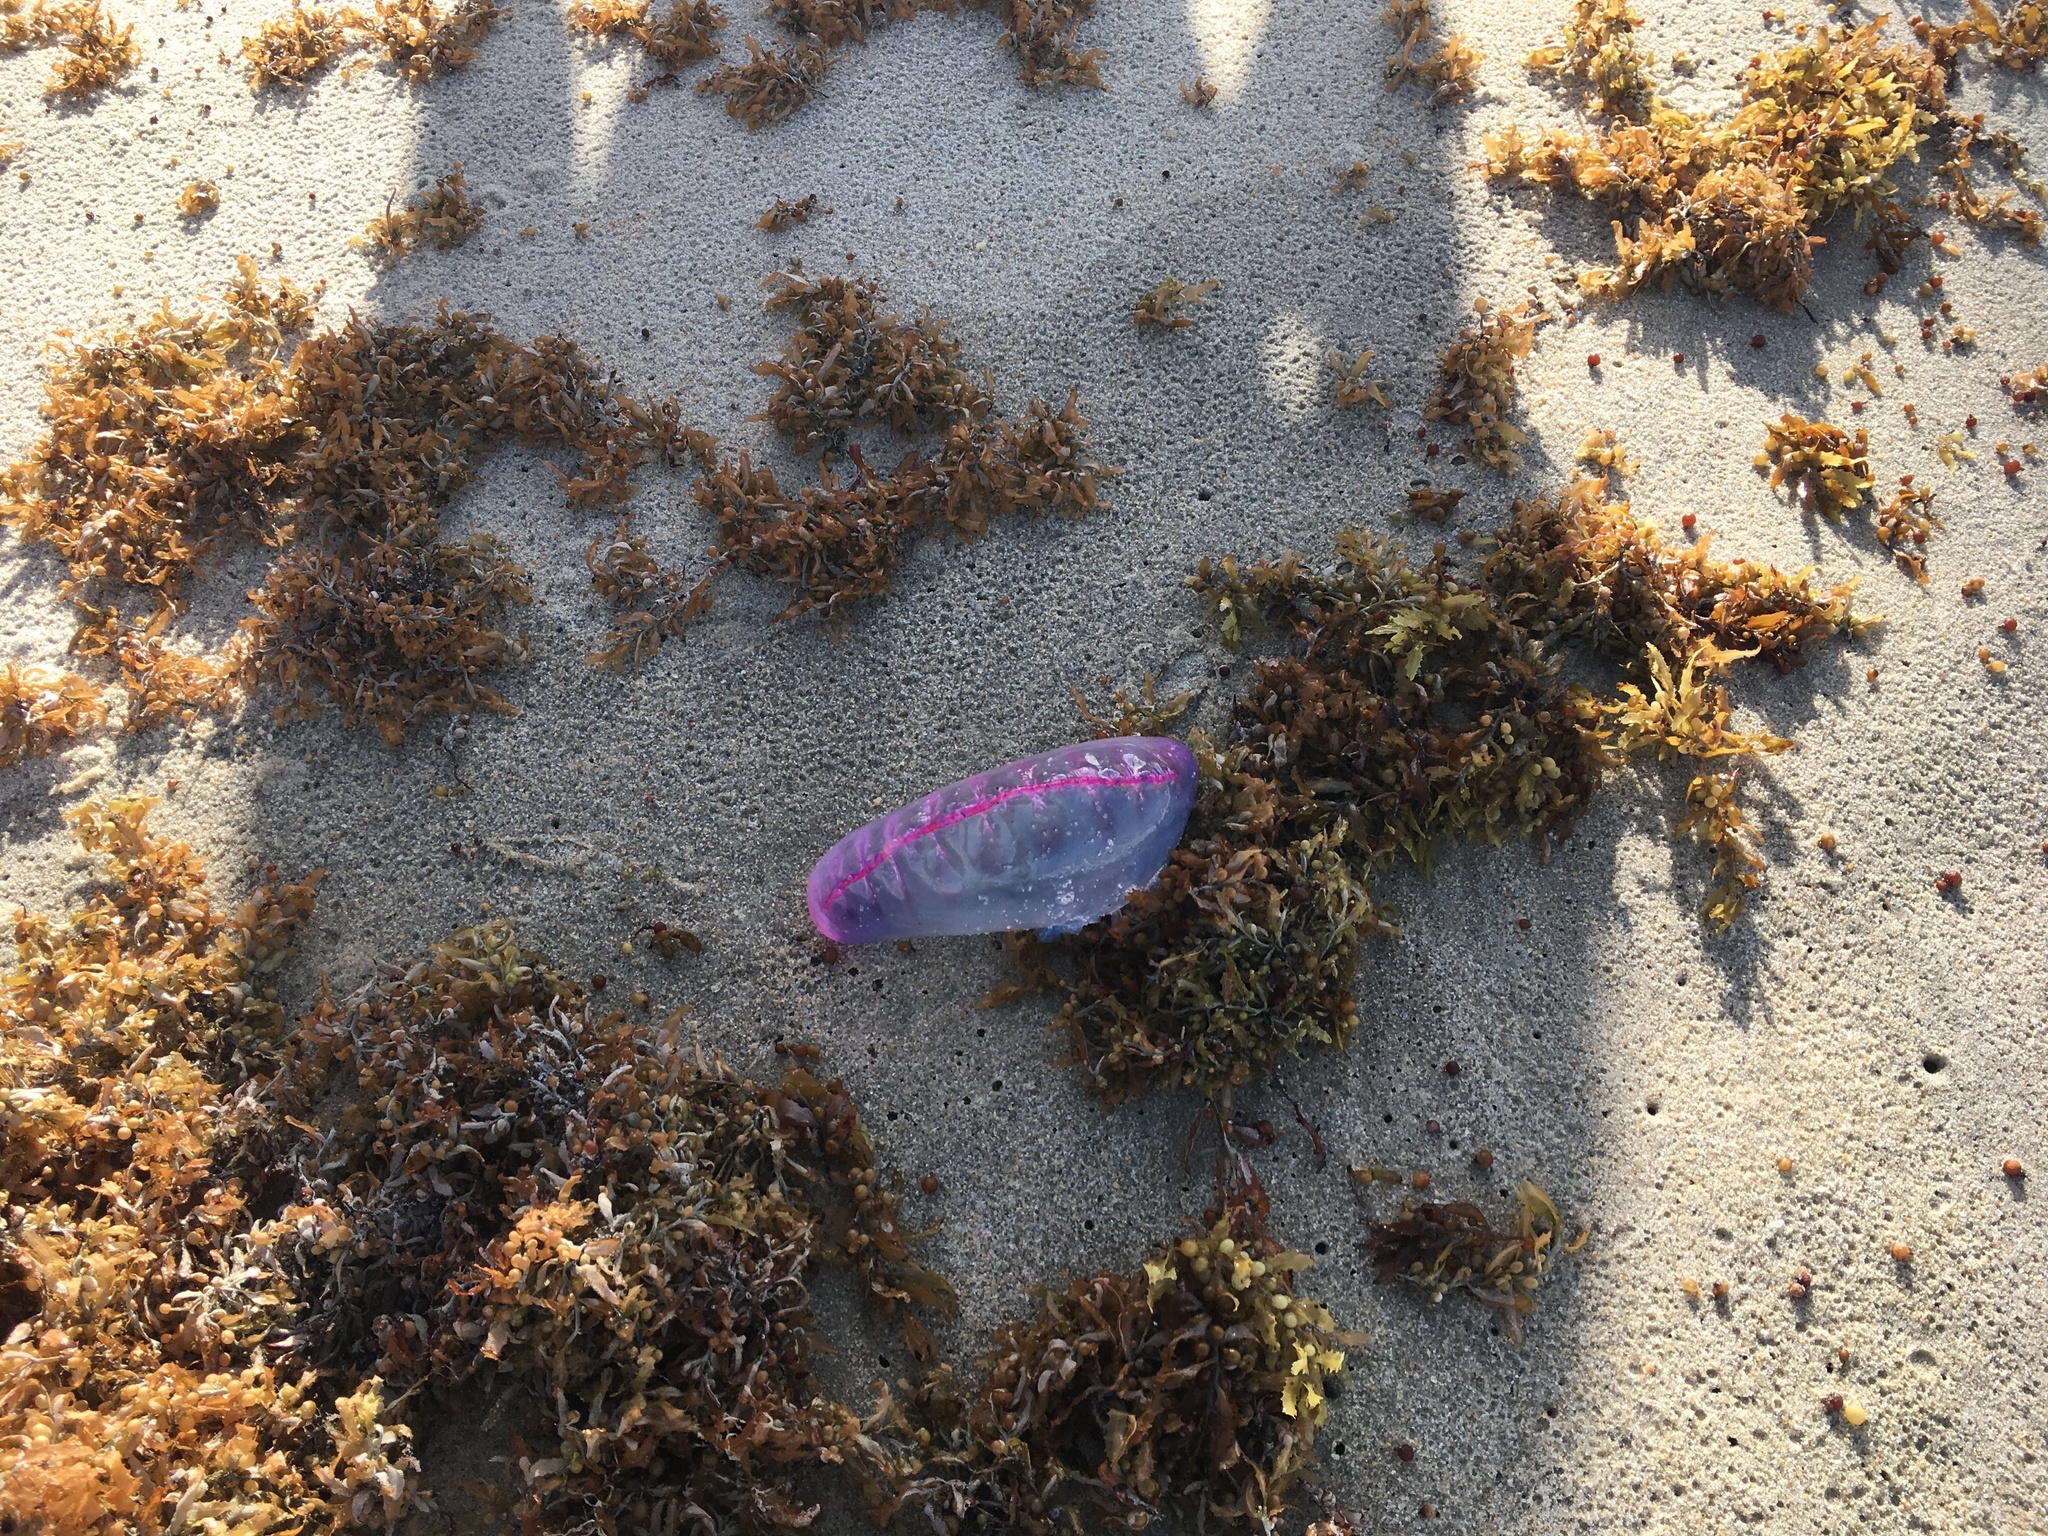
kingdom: Animalia
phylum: Cnidaria
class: Hydrozoa
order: Siphonophorae
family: Physaliidae
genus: Physalia
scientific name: Physalia physalis
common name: Portuguese man-of-war
